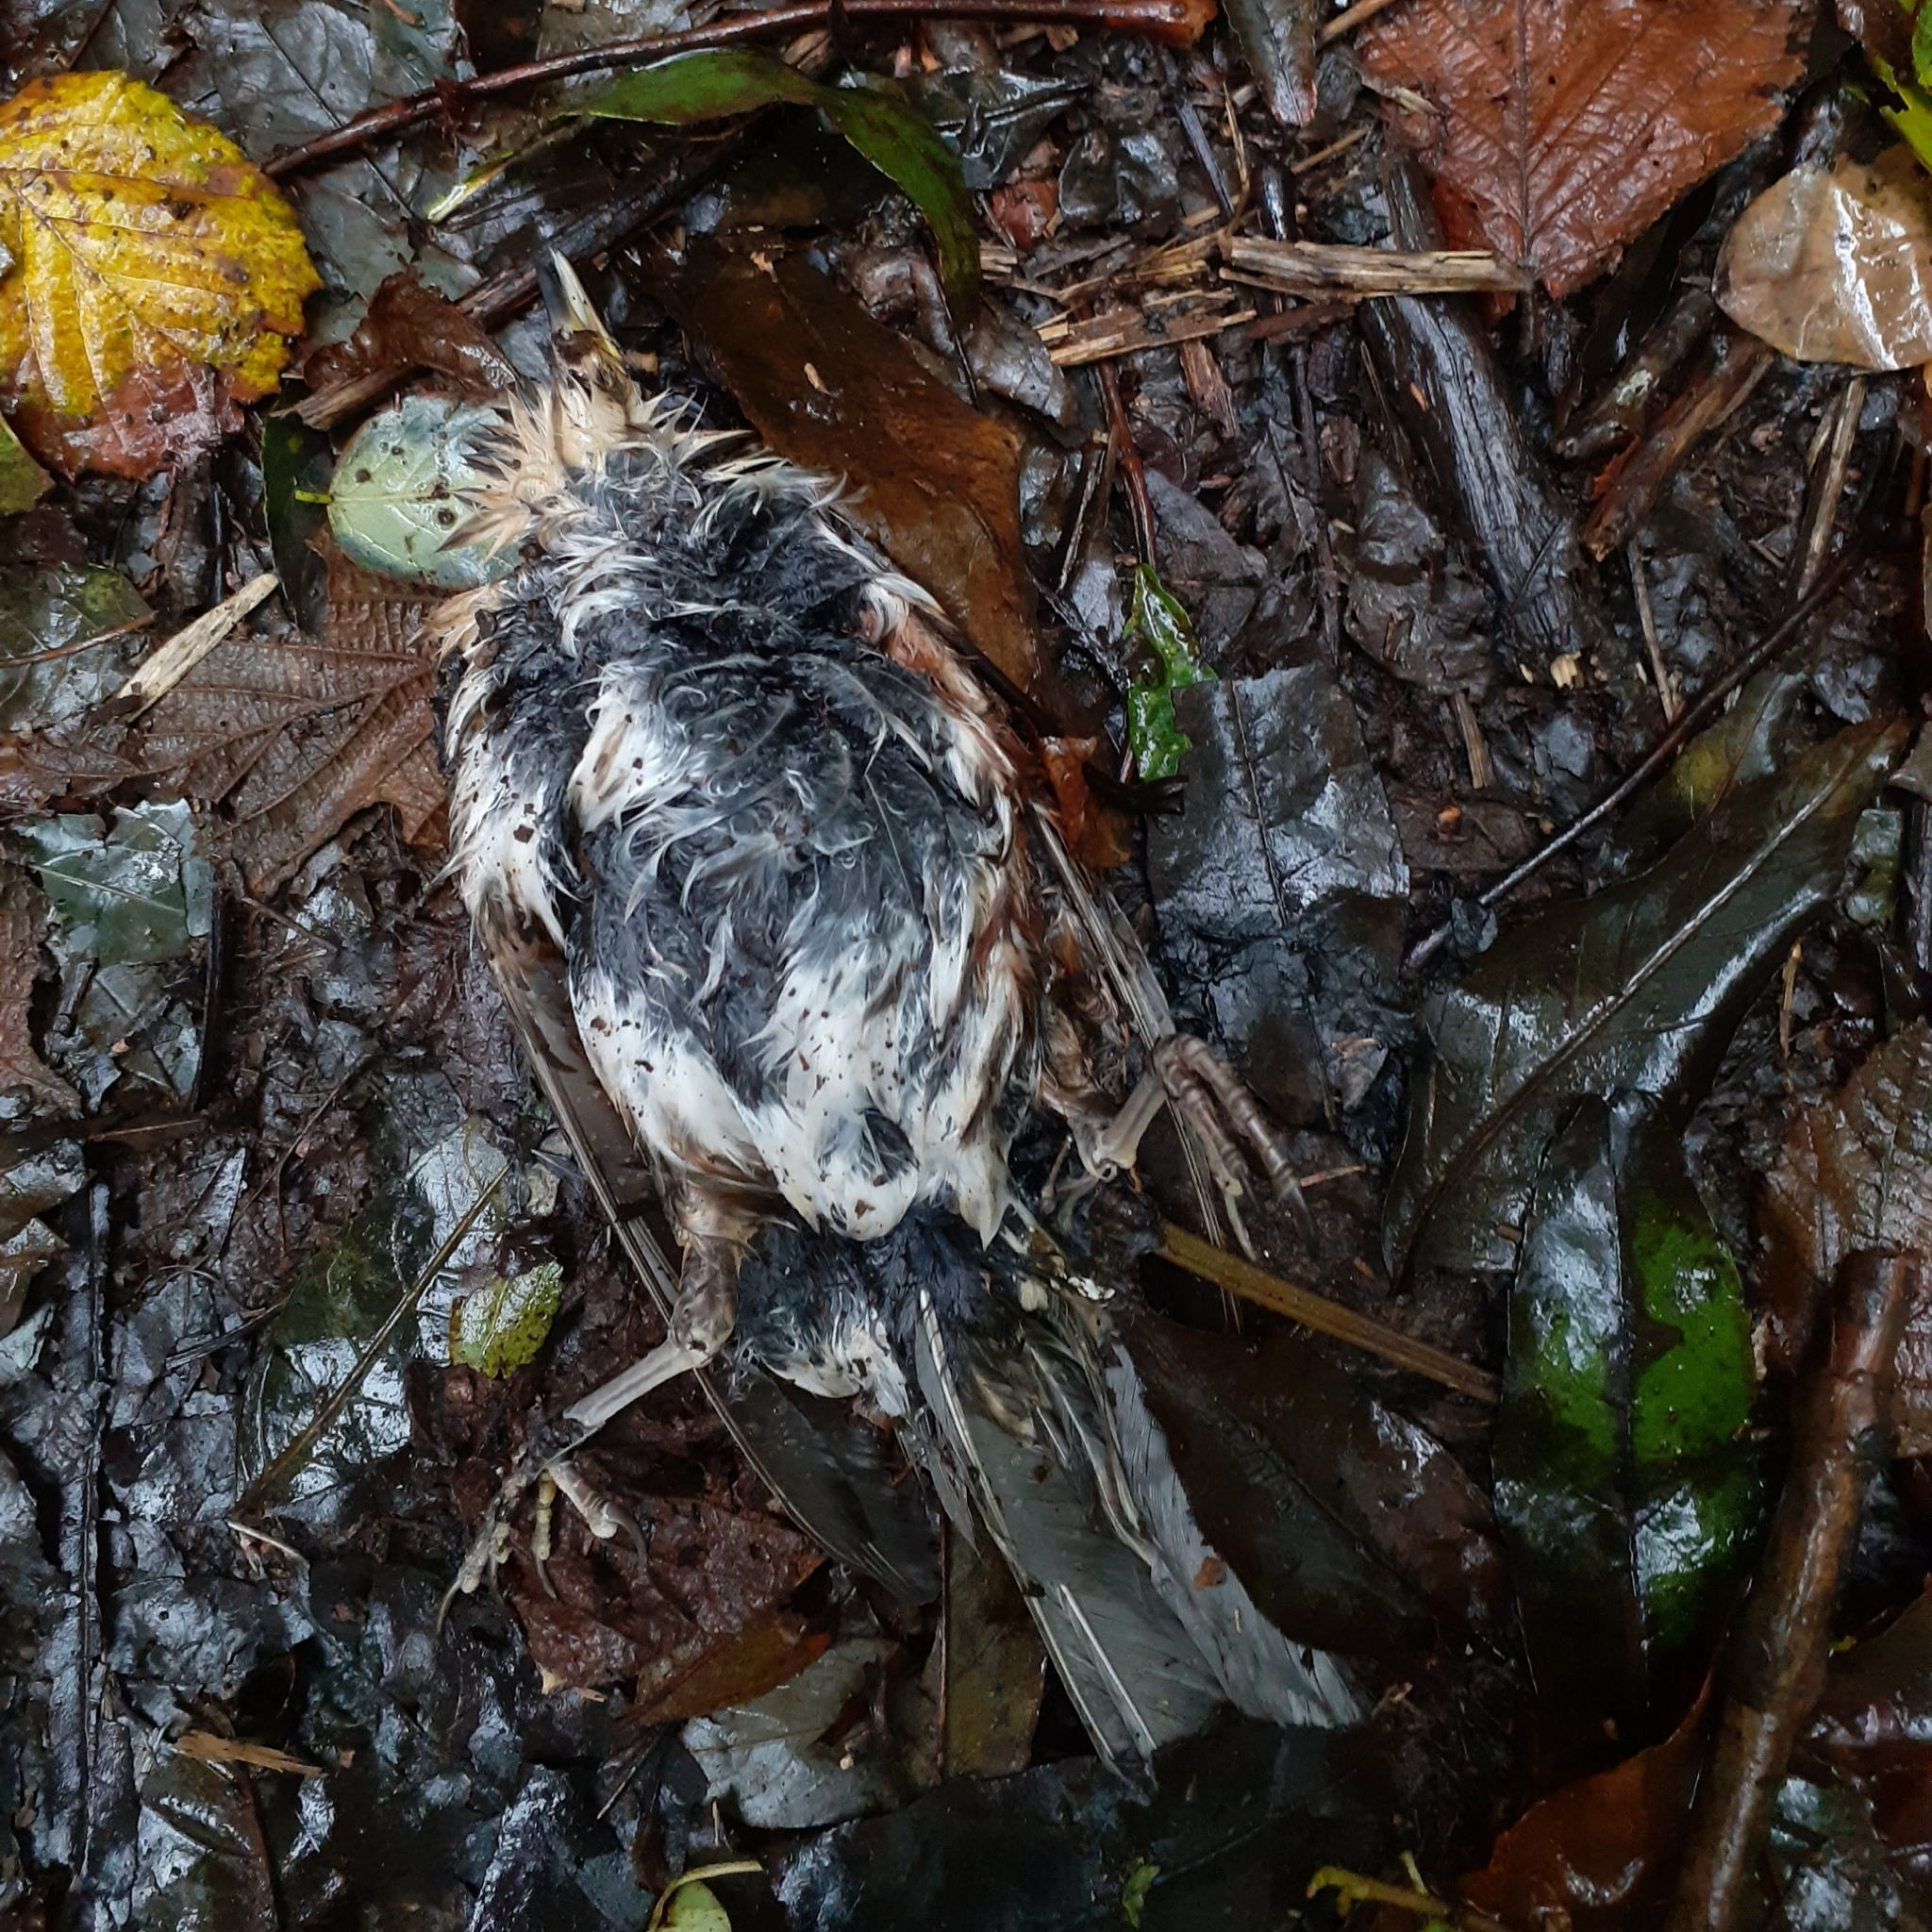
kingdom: Animalia
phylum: Chordata
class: Aves
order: Passeriformes
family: Turdidae
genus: Turdus
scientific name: Turdus iliacus
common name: Redwing
